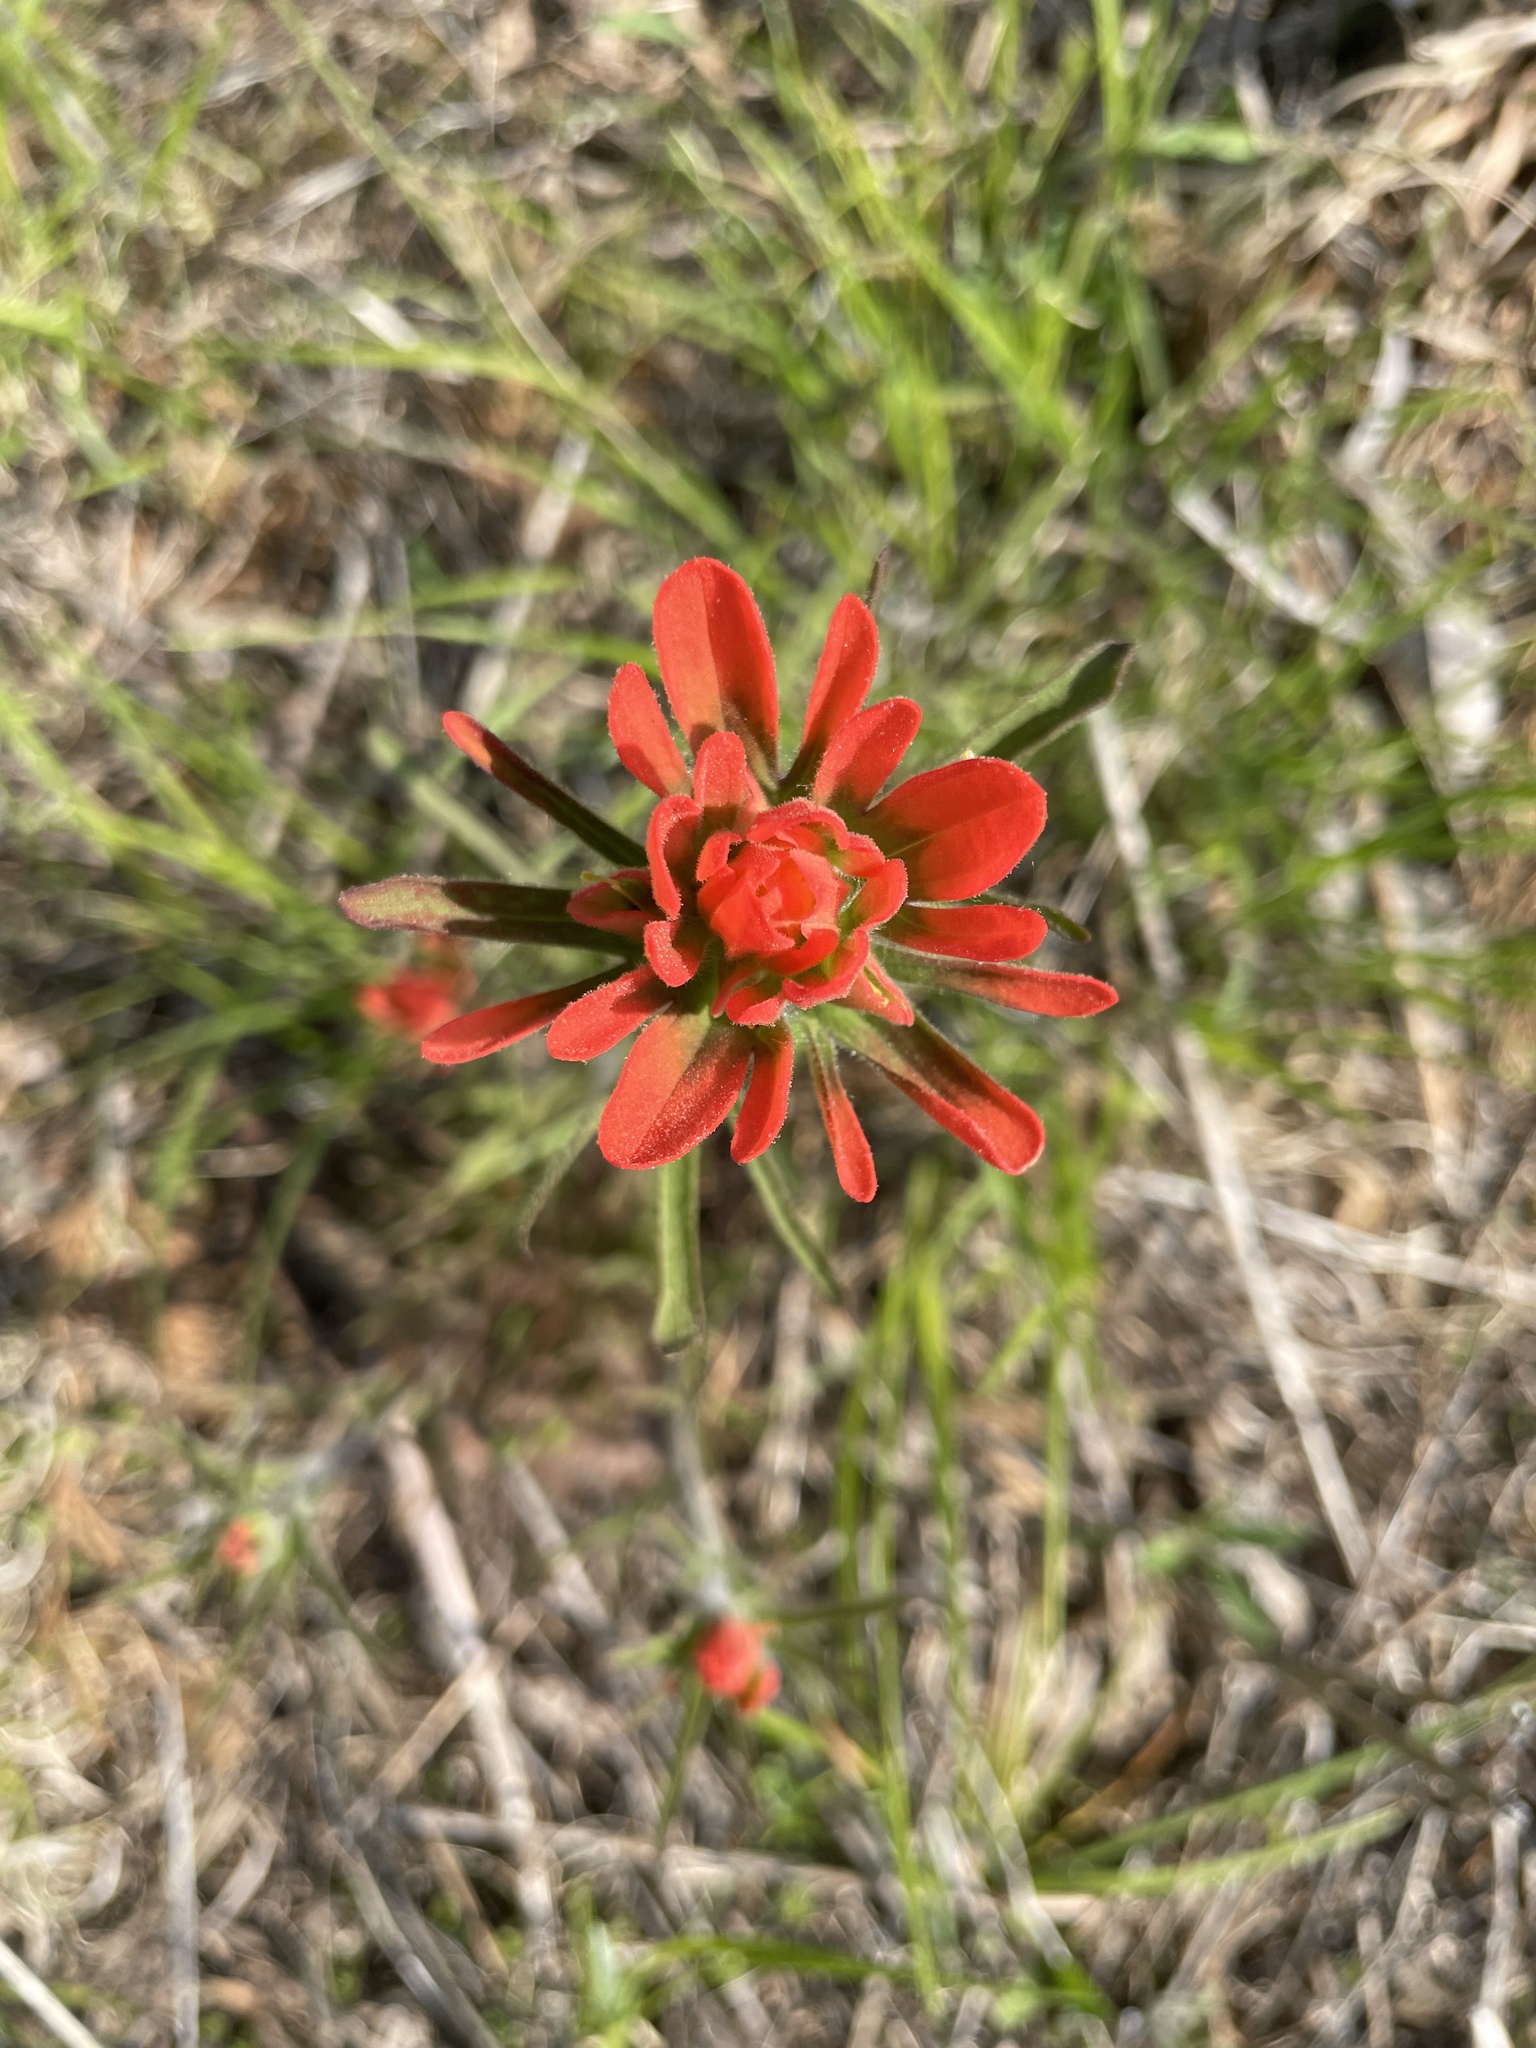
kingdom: Plantae
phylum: Tracheophyta
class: Magnoliopsida
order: Lamiales
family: Orobanchaceae
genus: Castilleja
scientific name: Castilleja coccinea
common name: Scarlet paintbrush
